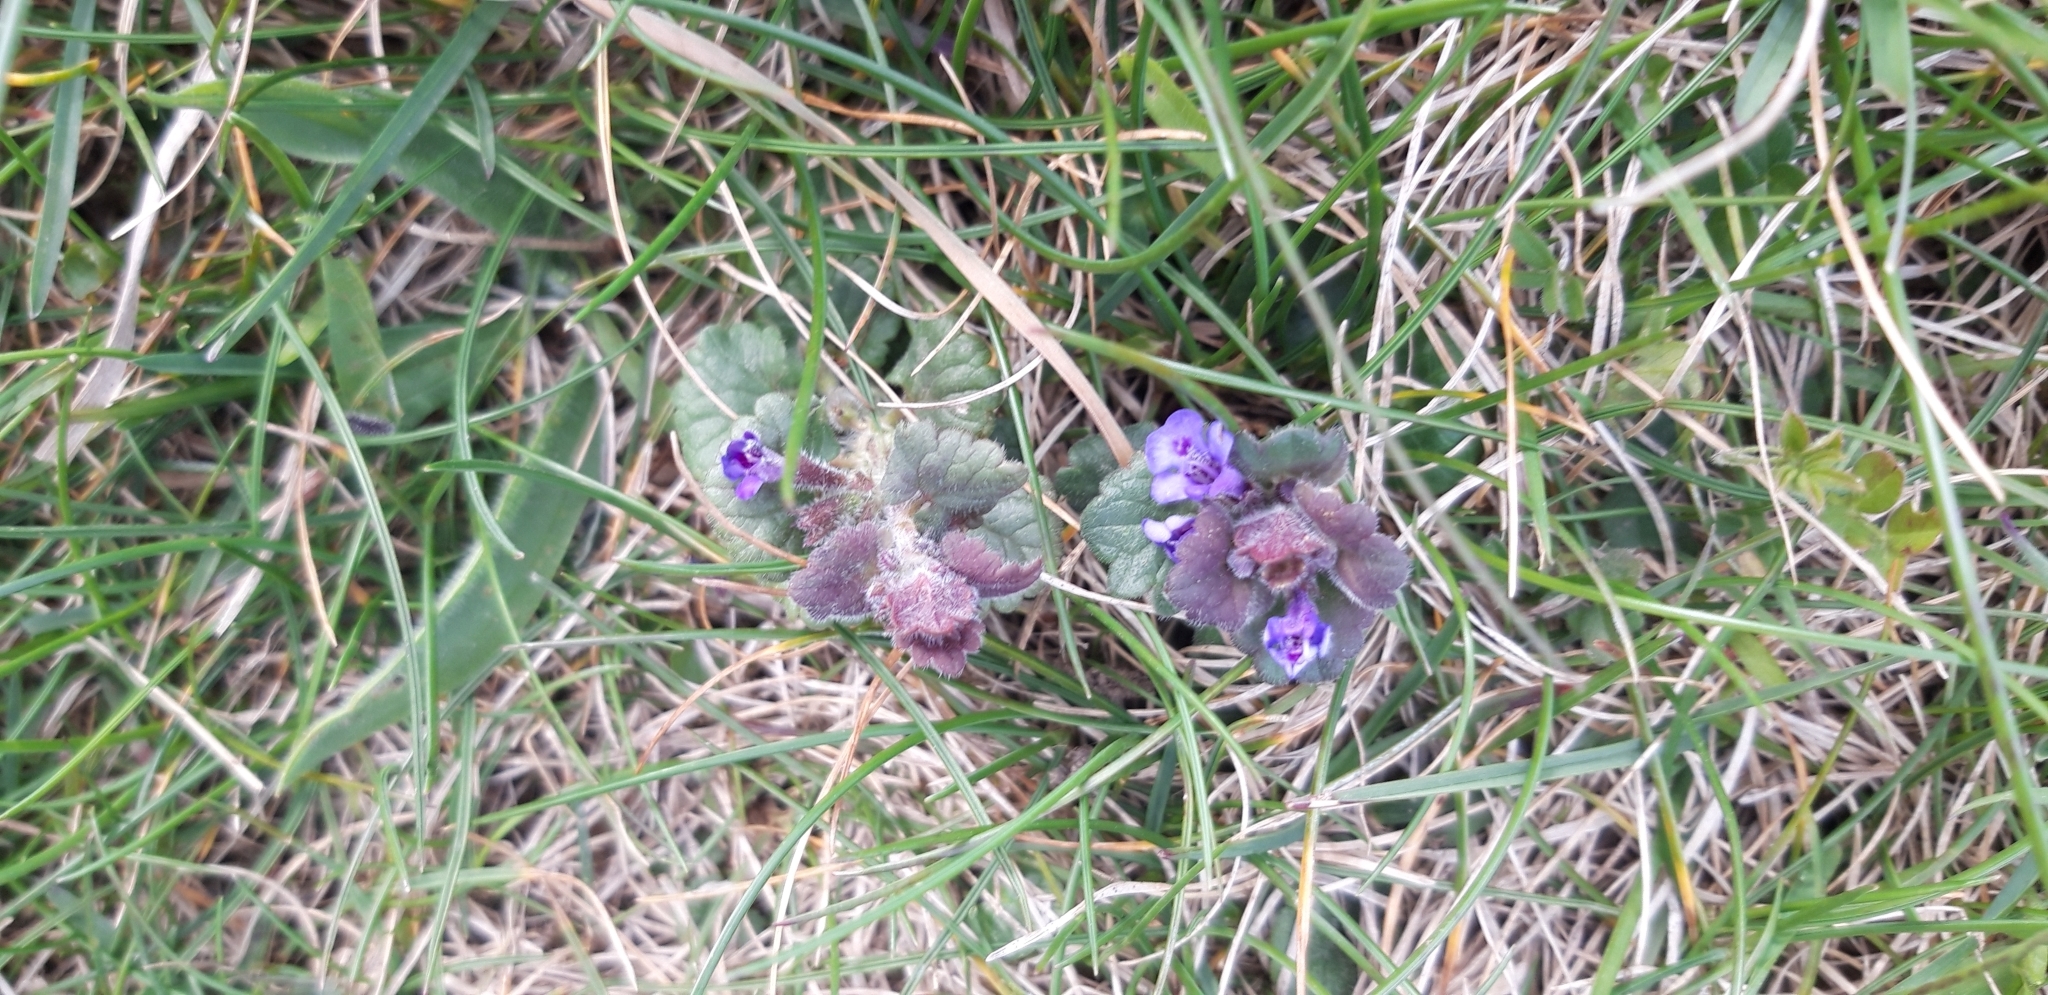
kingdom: Plantae
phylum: Tracheophyta
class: Magnoliopsida
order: Lamiales
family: Lamiaceae
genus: Glechoma
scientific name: Glechoma hederacea
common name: Ground ivy
